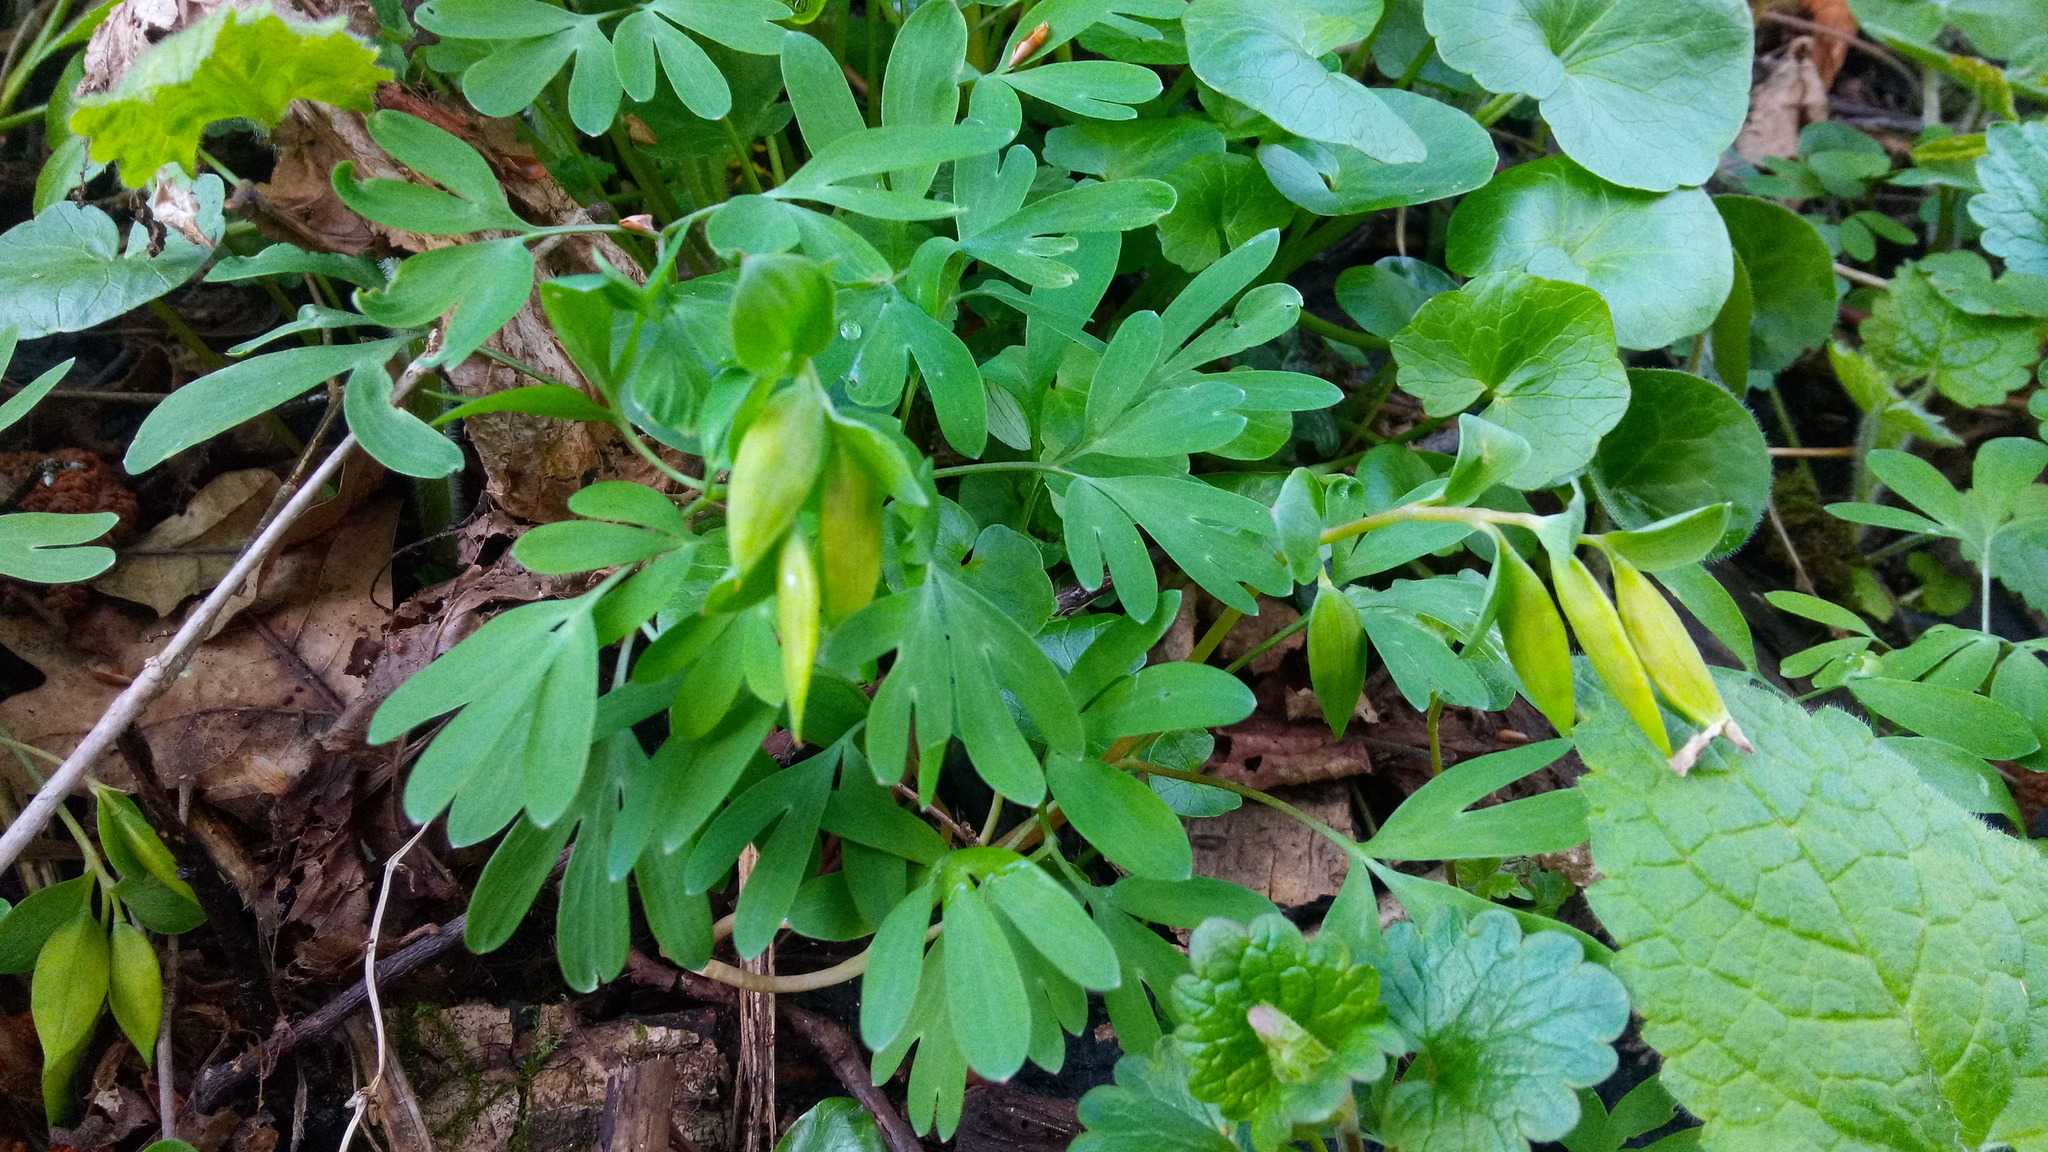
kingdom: Plantae
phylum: Tracheophyta
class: Magnoliopsida
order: Ranunculales
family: Papaveraceae
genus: Corydalis
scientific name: Corydalis intermedia
